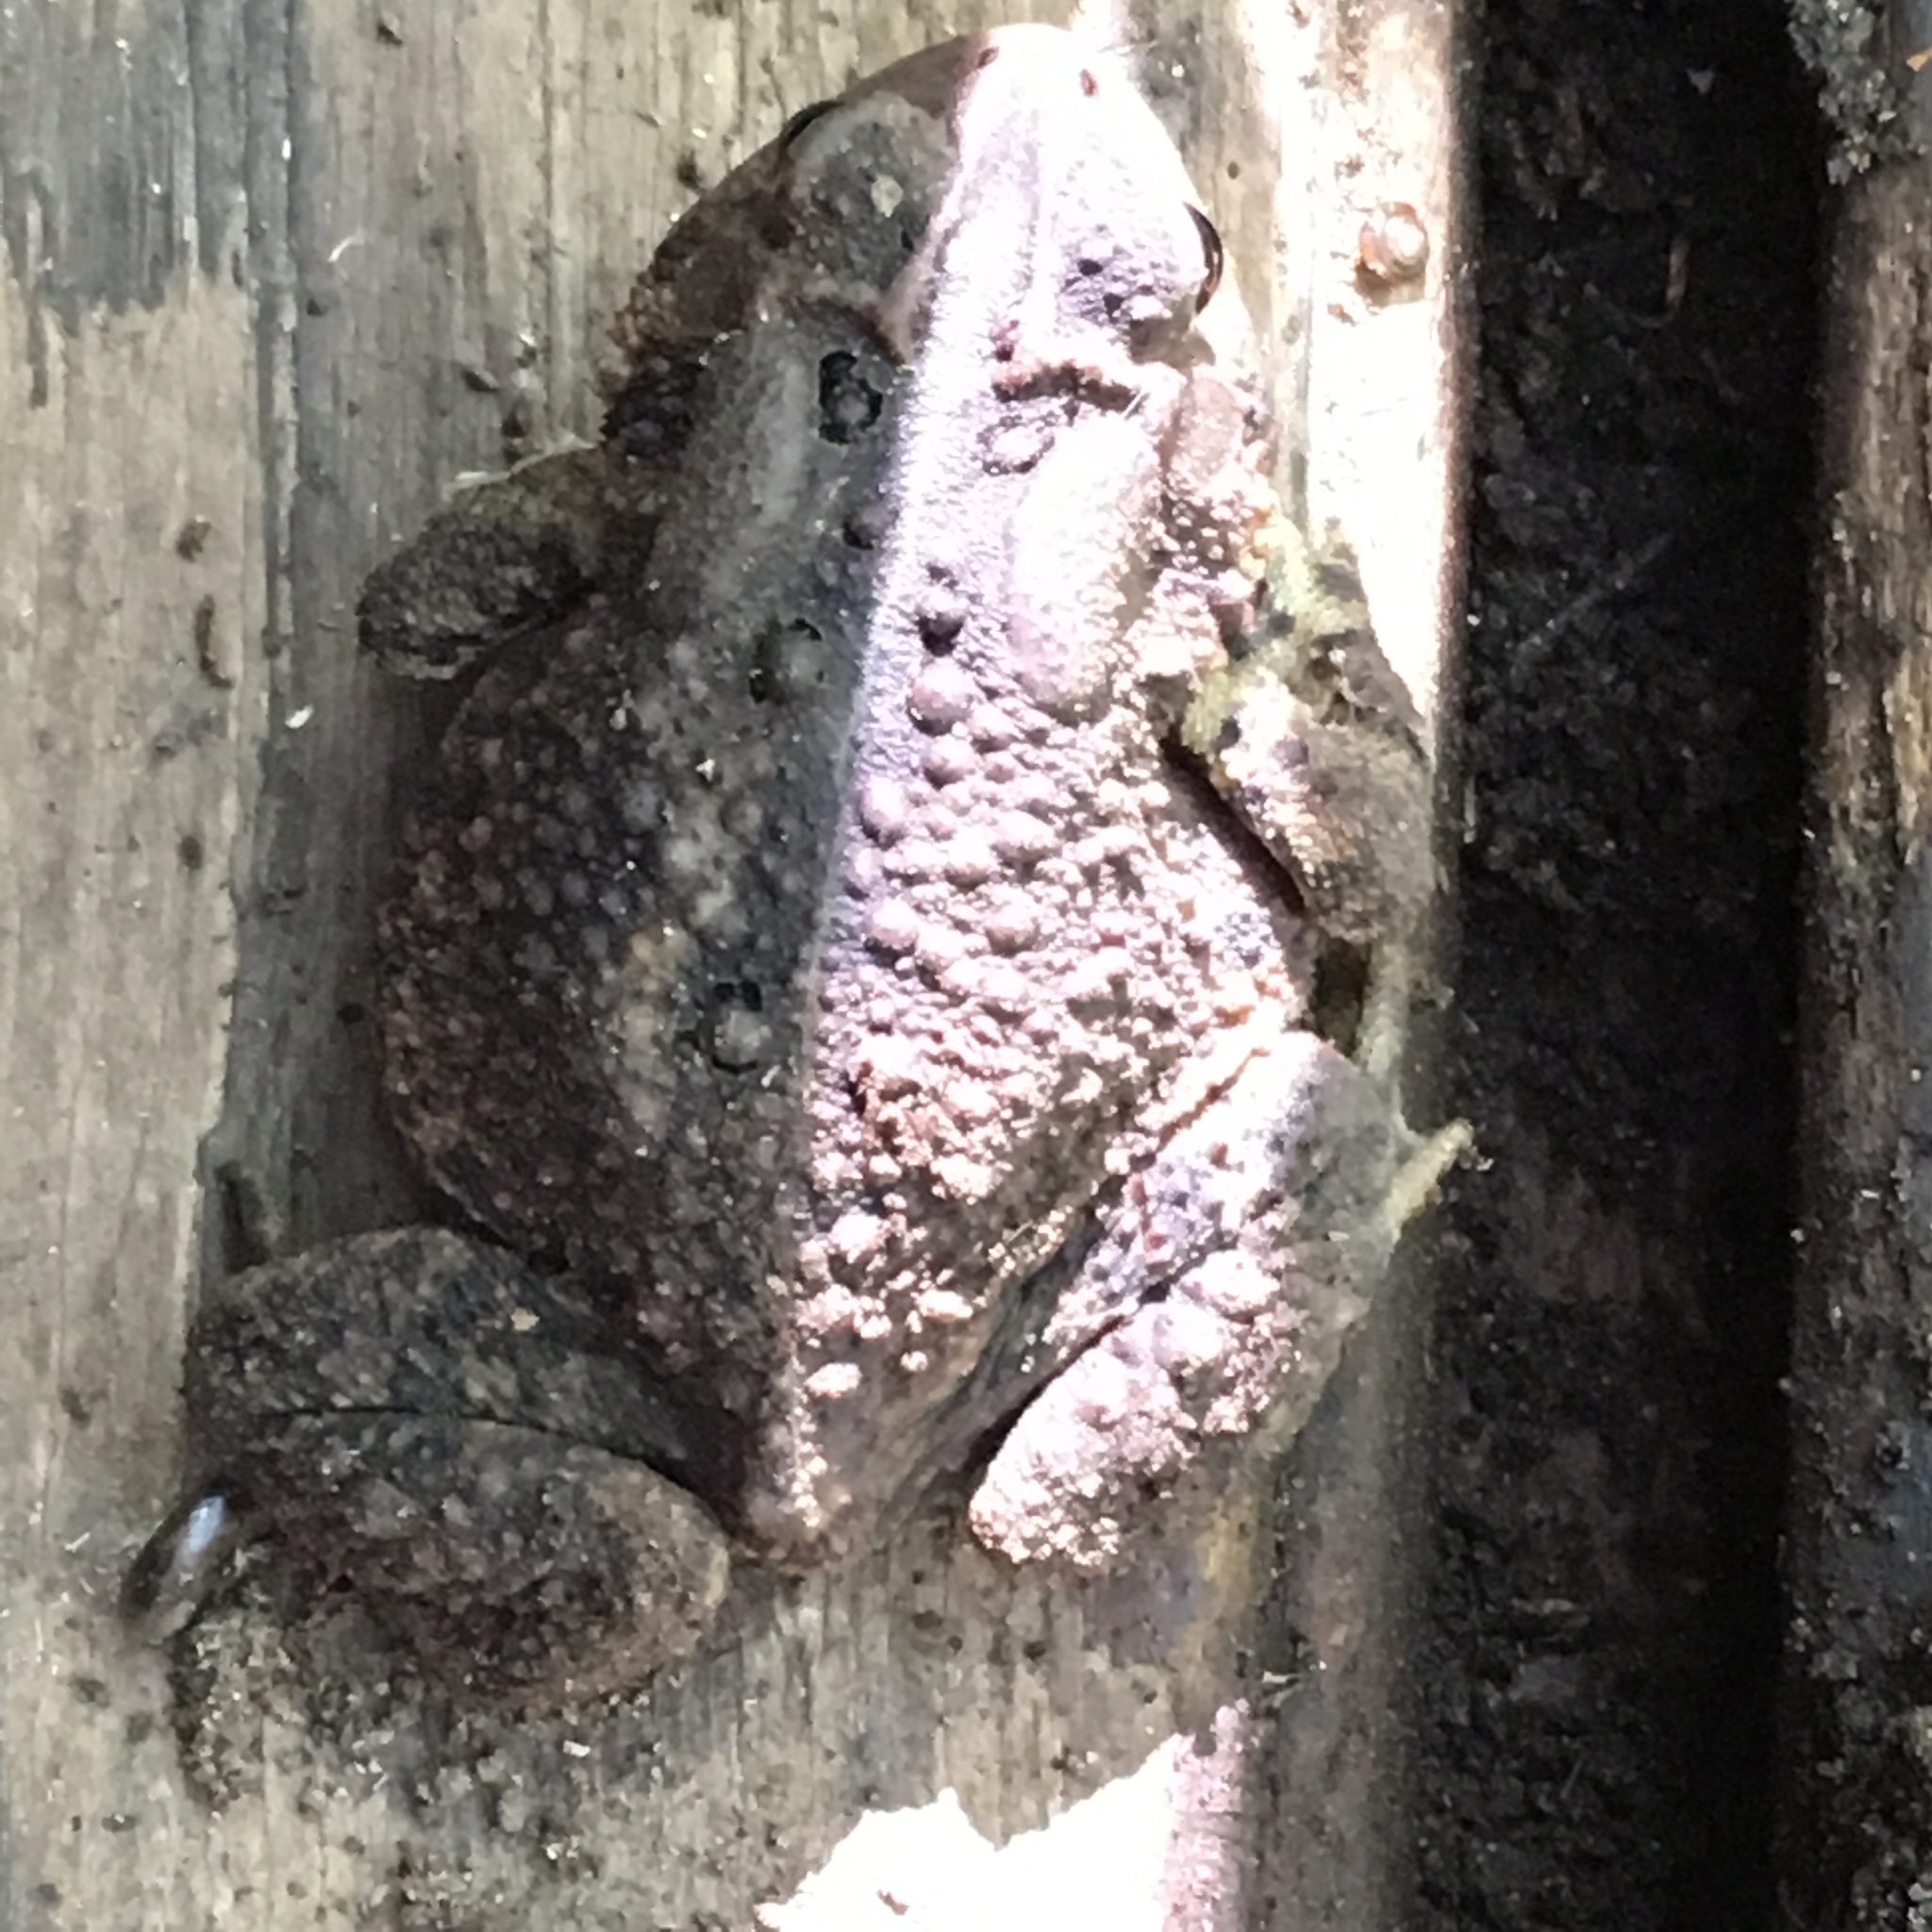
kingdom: Animalia
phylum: Chordata
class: Amphibia
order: Anura
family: Bufonidae
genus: Anaxyrus
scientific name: Anaxyrus americanus
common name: American toad
